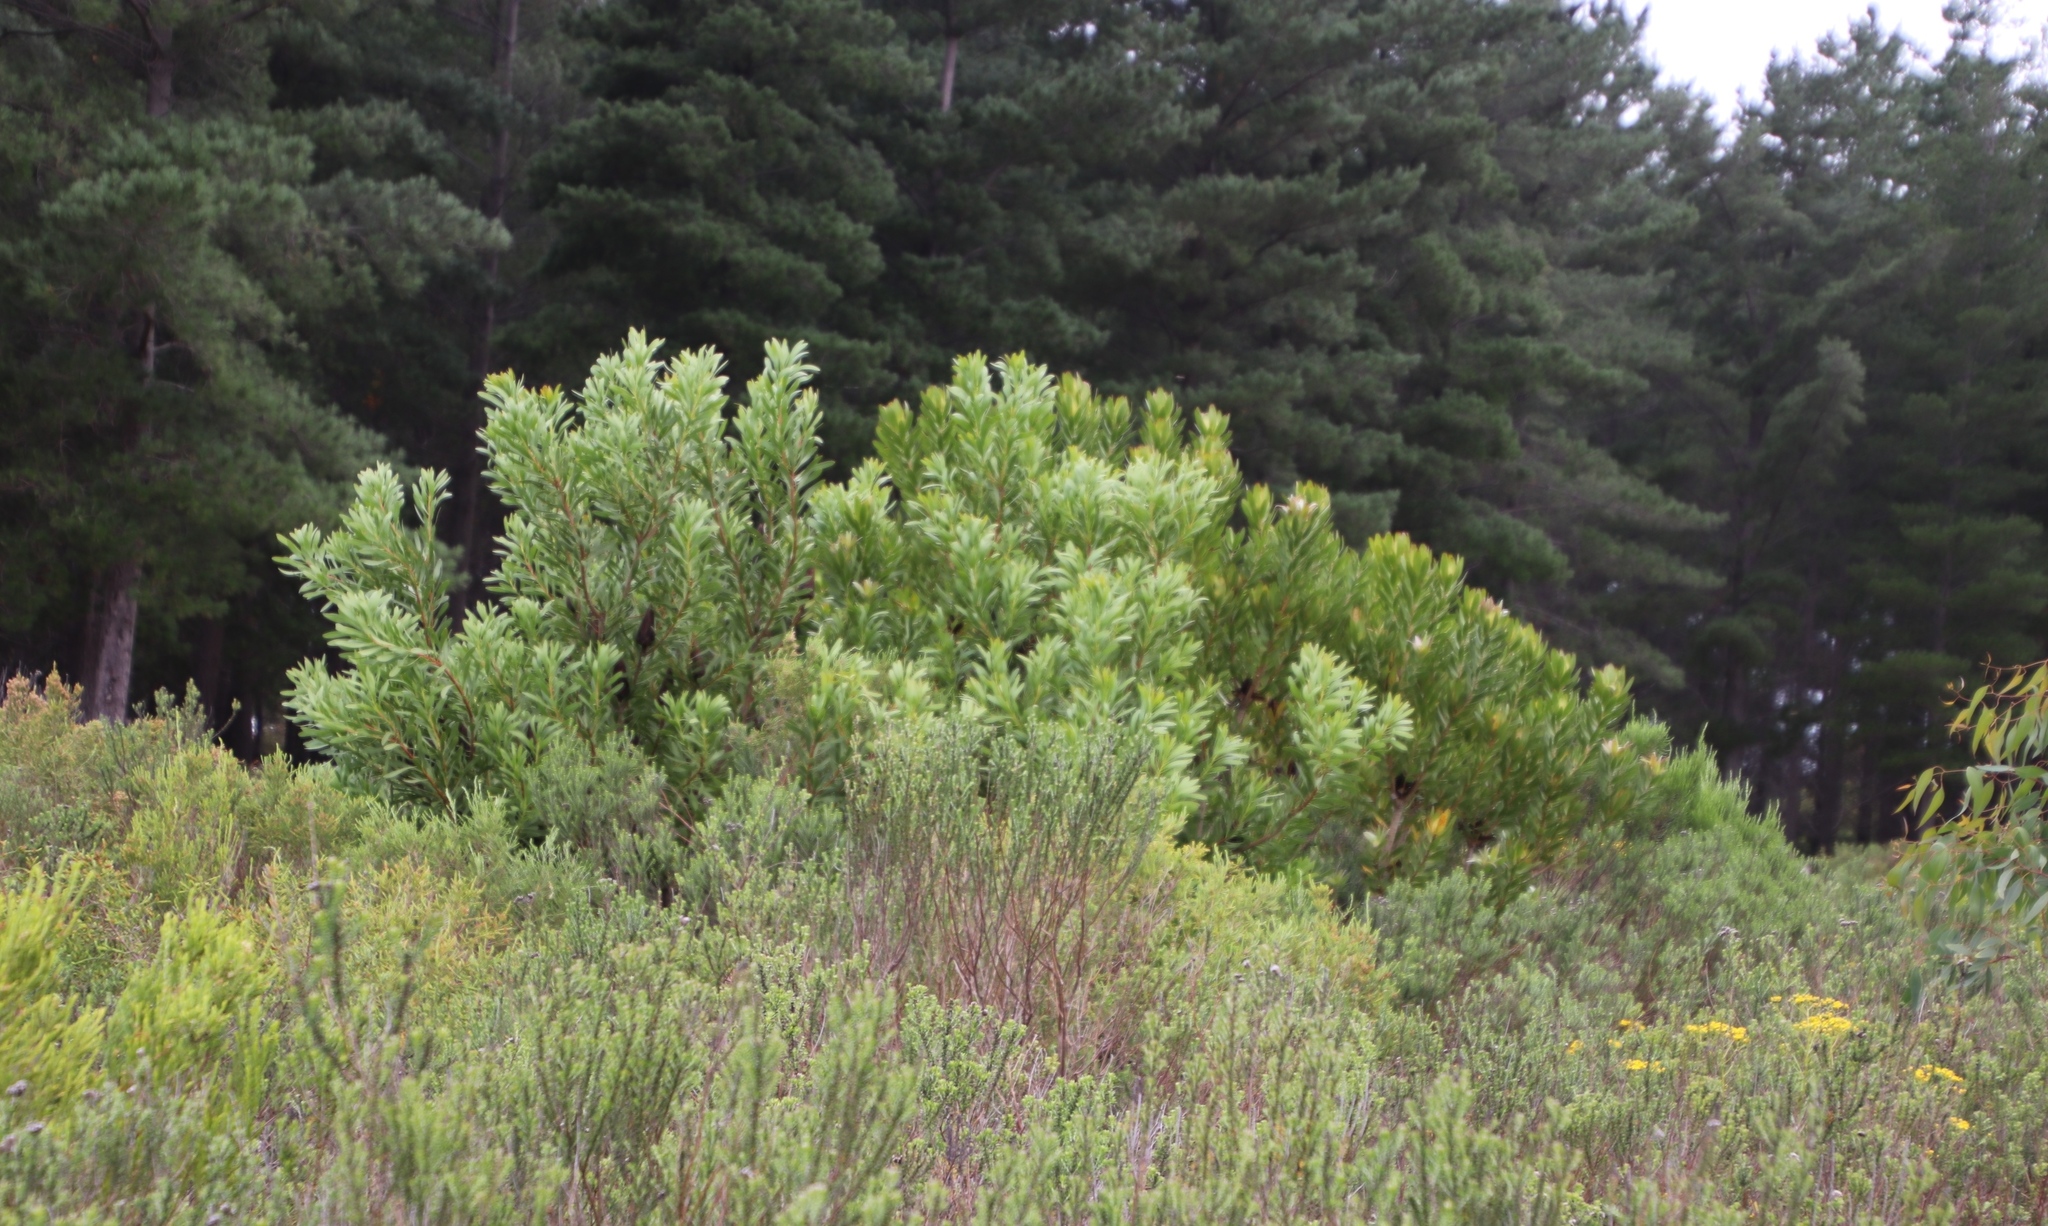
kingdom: Plantae
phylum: Tracheophyta
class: Magnoliopsida
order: Proteales
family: Proteaceae
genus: Protea
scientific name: Protea repens
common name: Sugarbush
